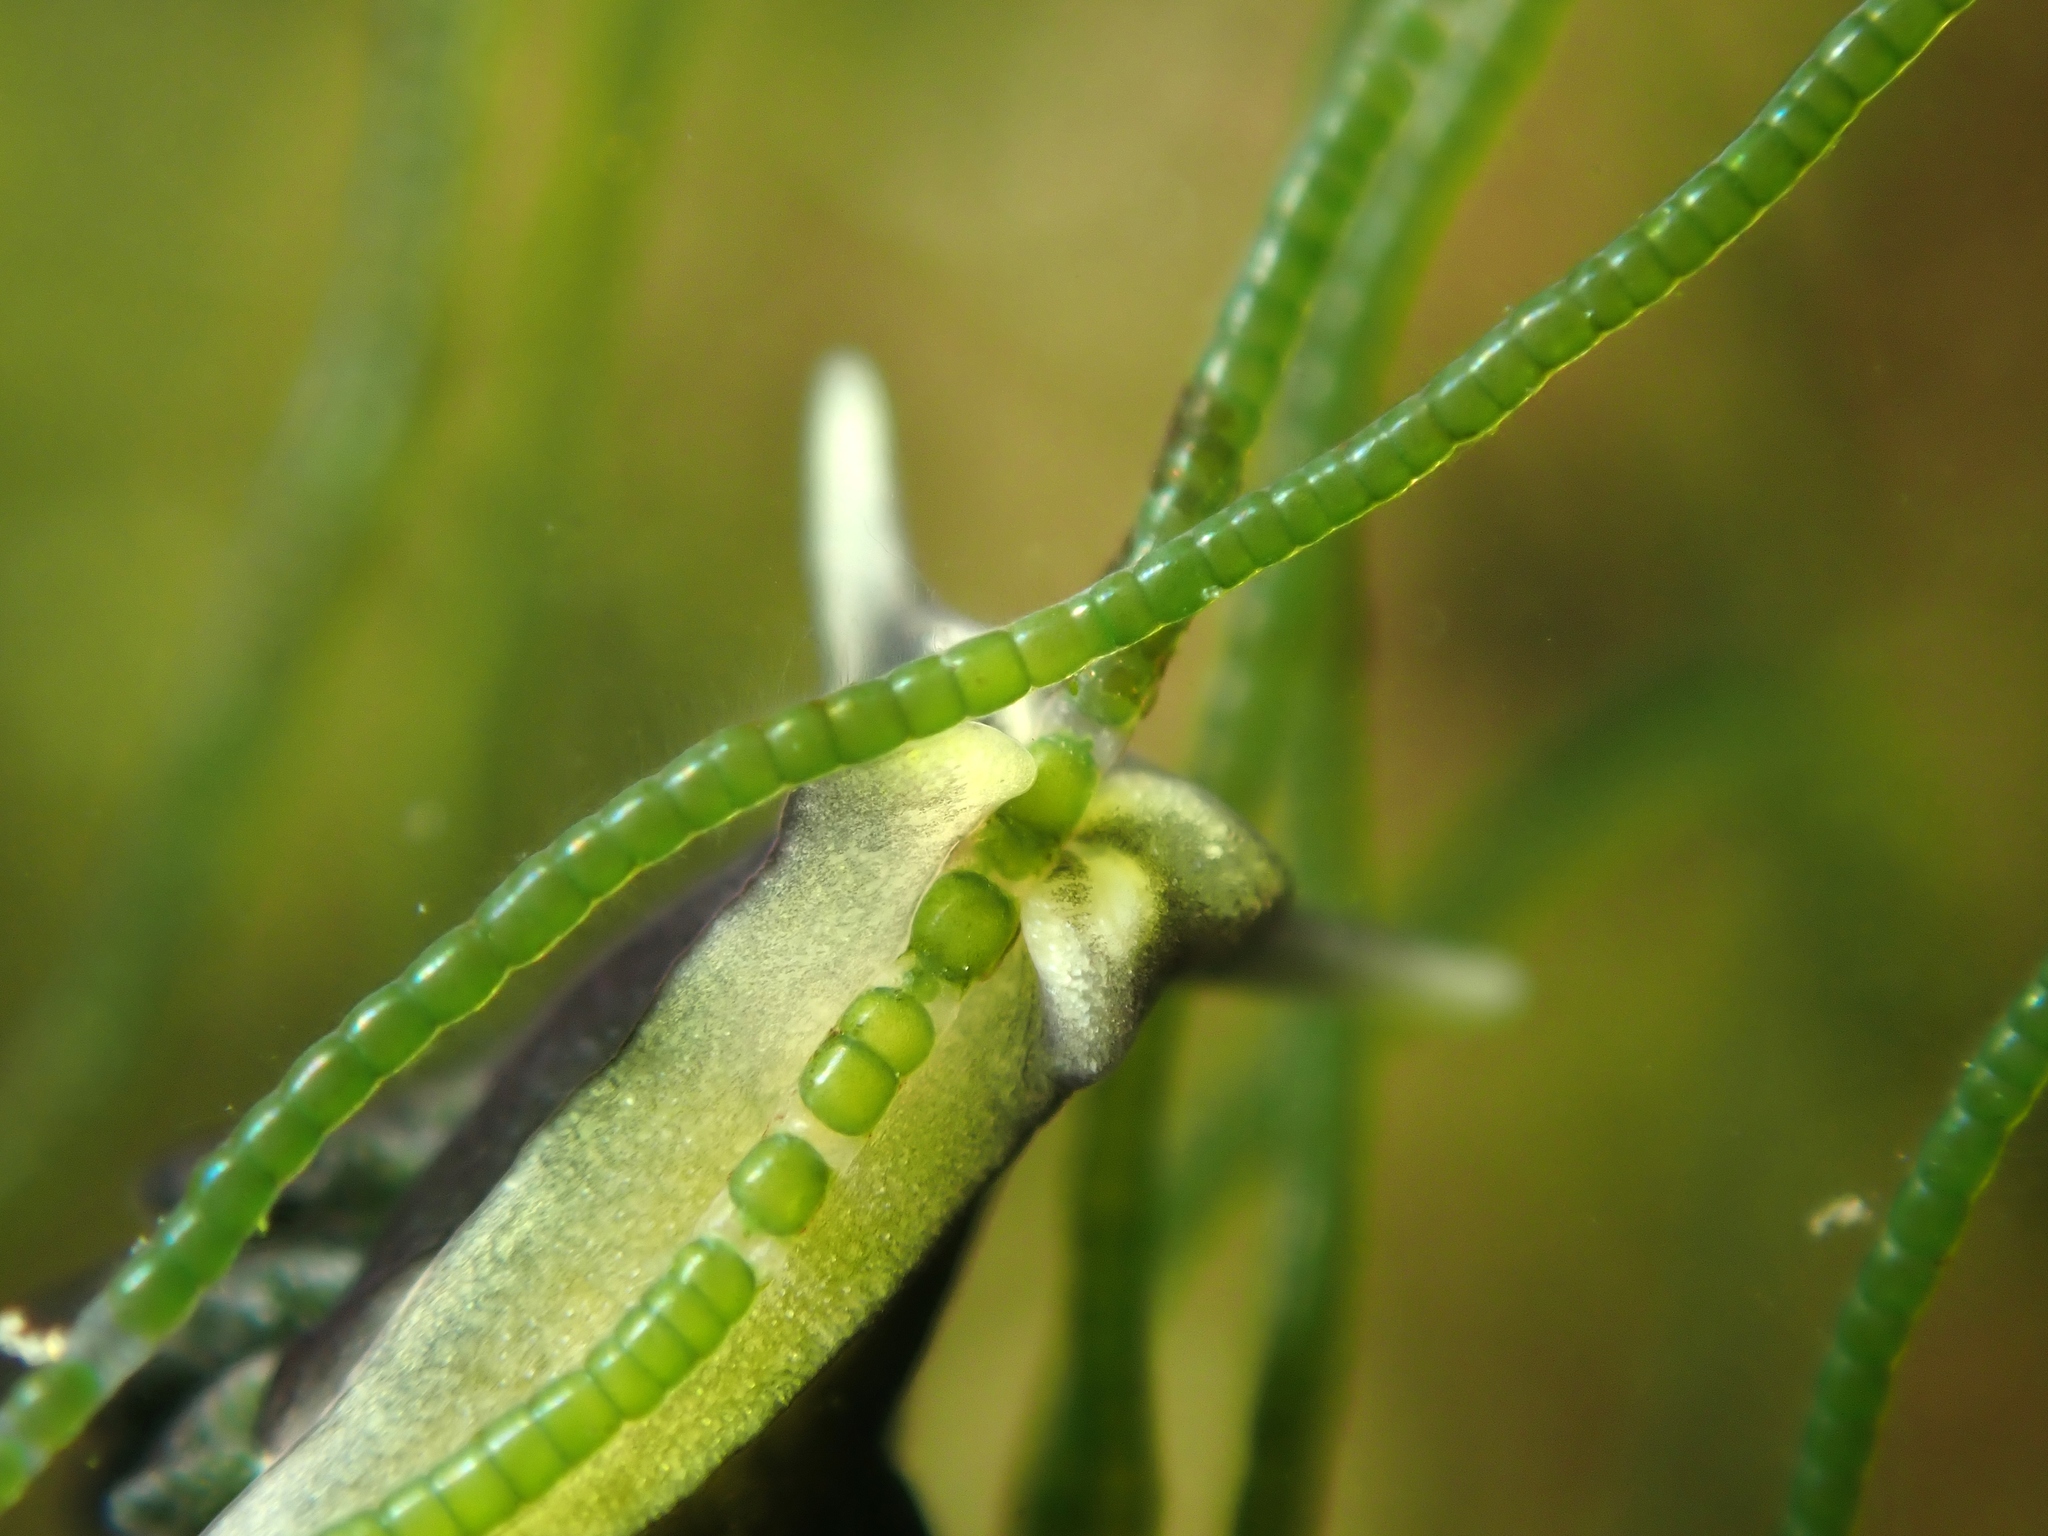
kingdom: Animalia
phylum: Mollusca
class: Gastropoda
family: Limapontiidae
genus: Ercolania
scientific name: Ercolania felina
